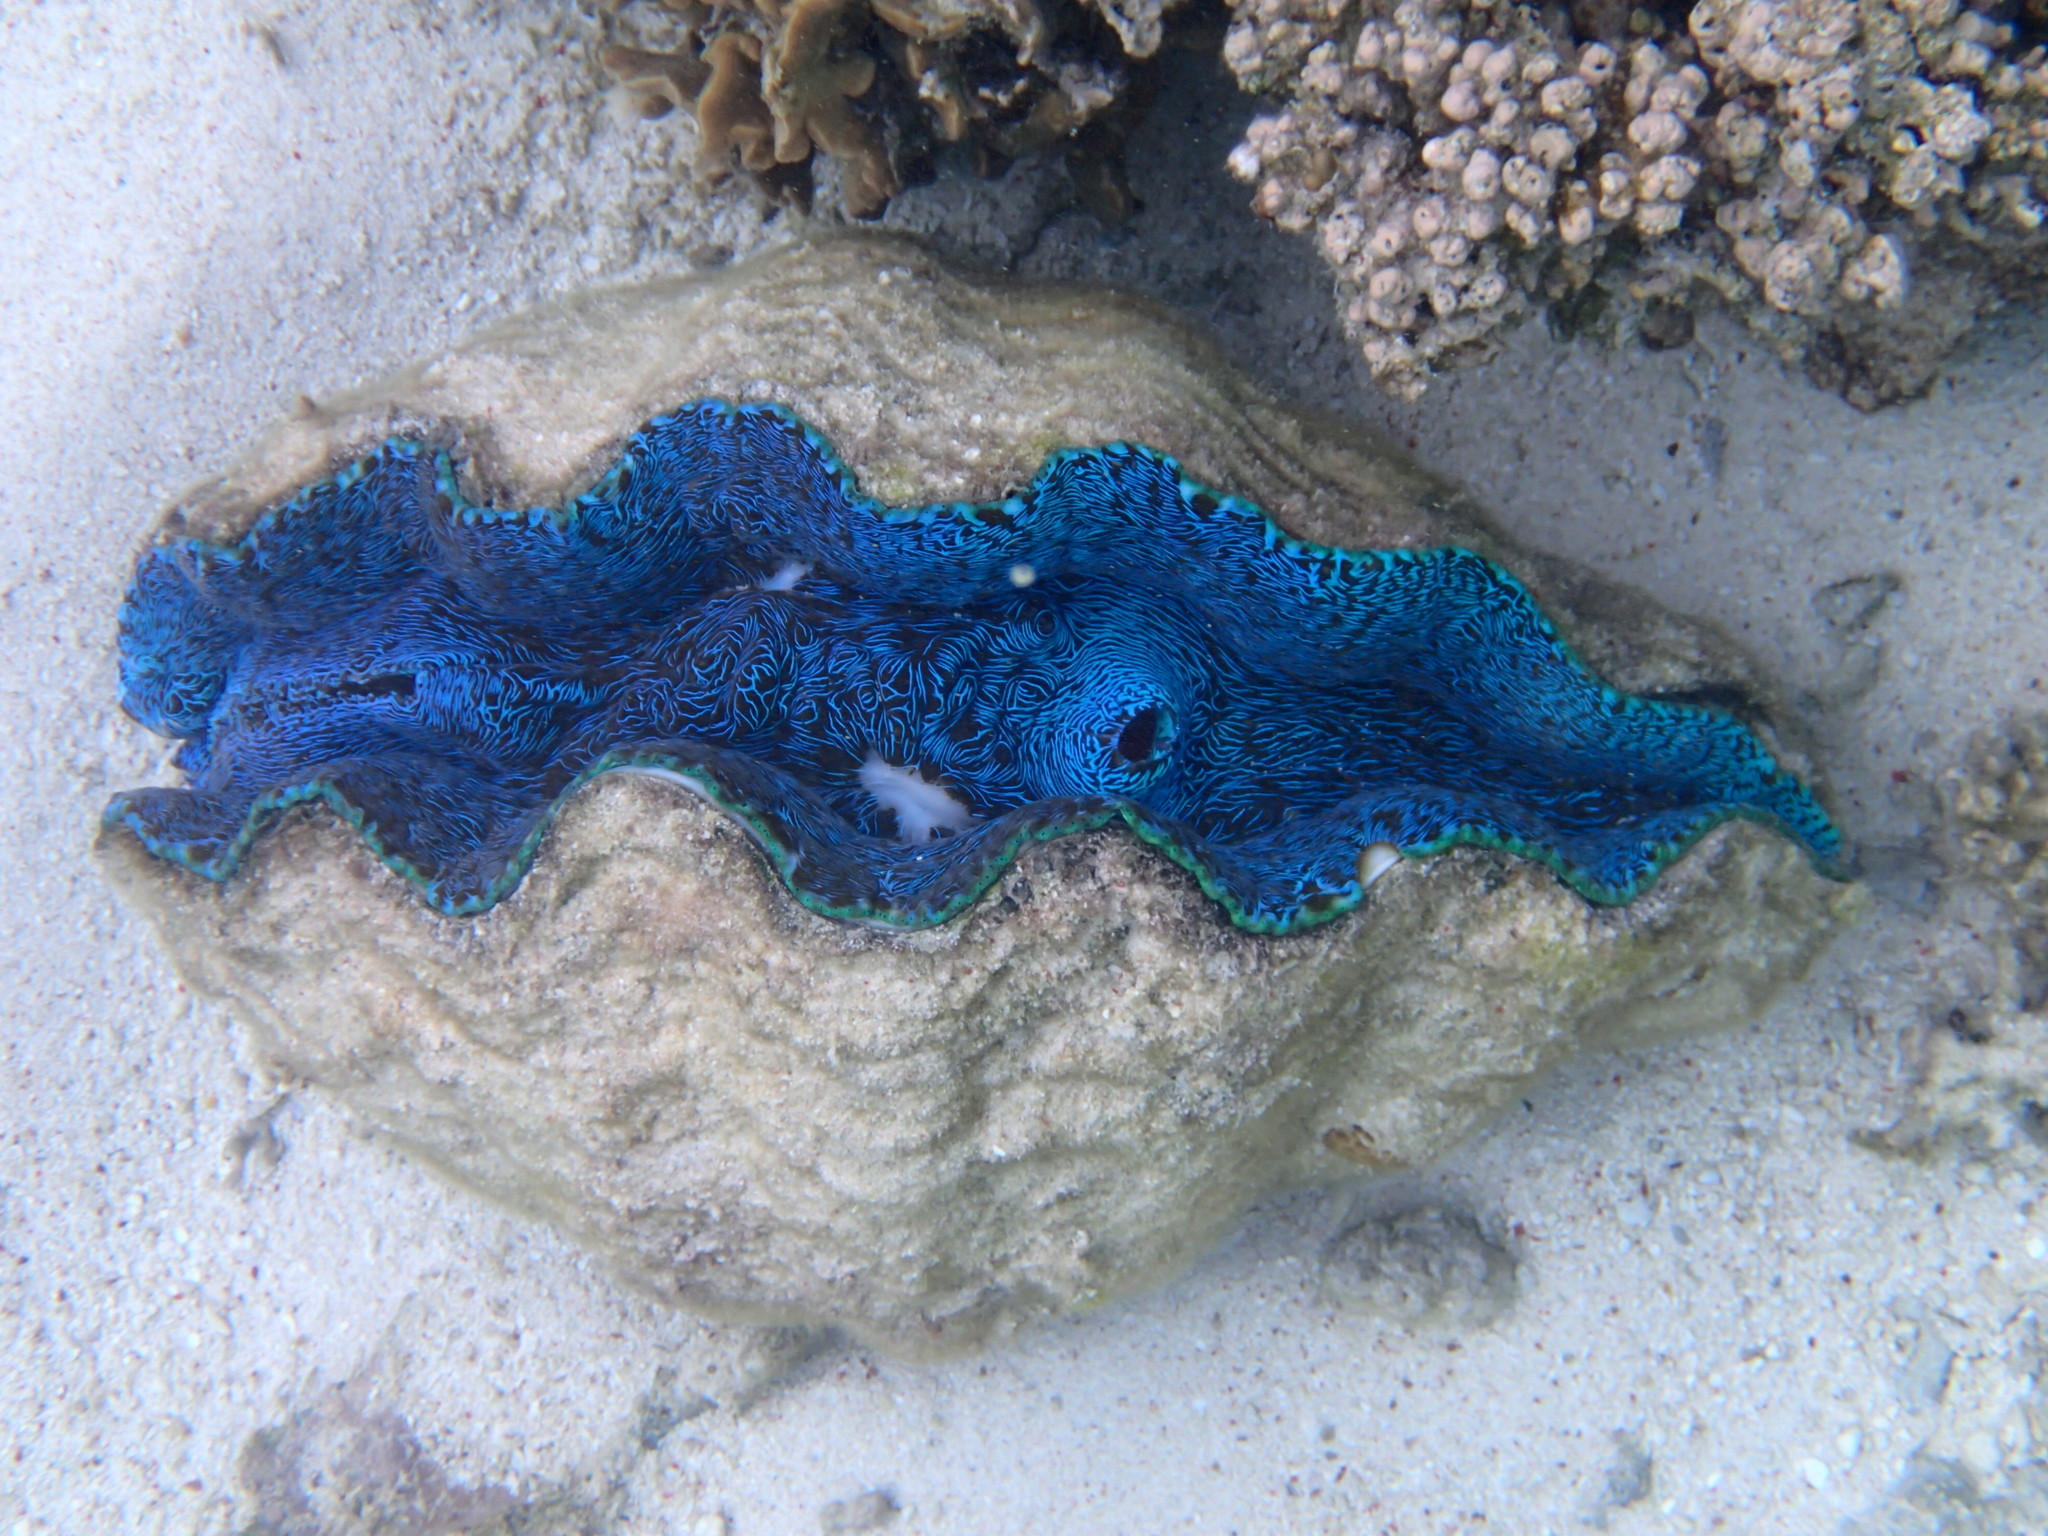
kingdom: Animalia
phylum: Mollusca
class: Bivalvia
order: Cardiida
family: Cardiidae
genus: Tridacna
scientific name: Tridacna derasa
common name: Southern giant clam
